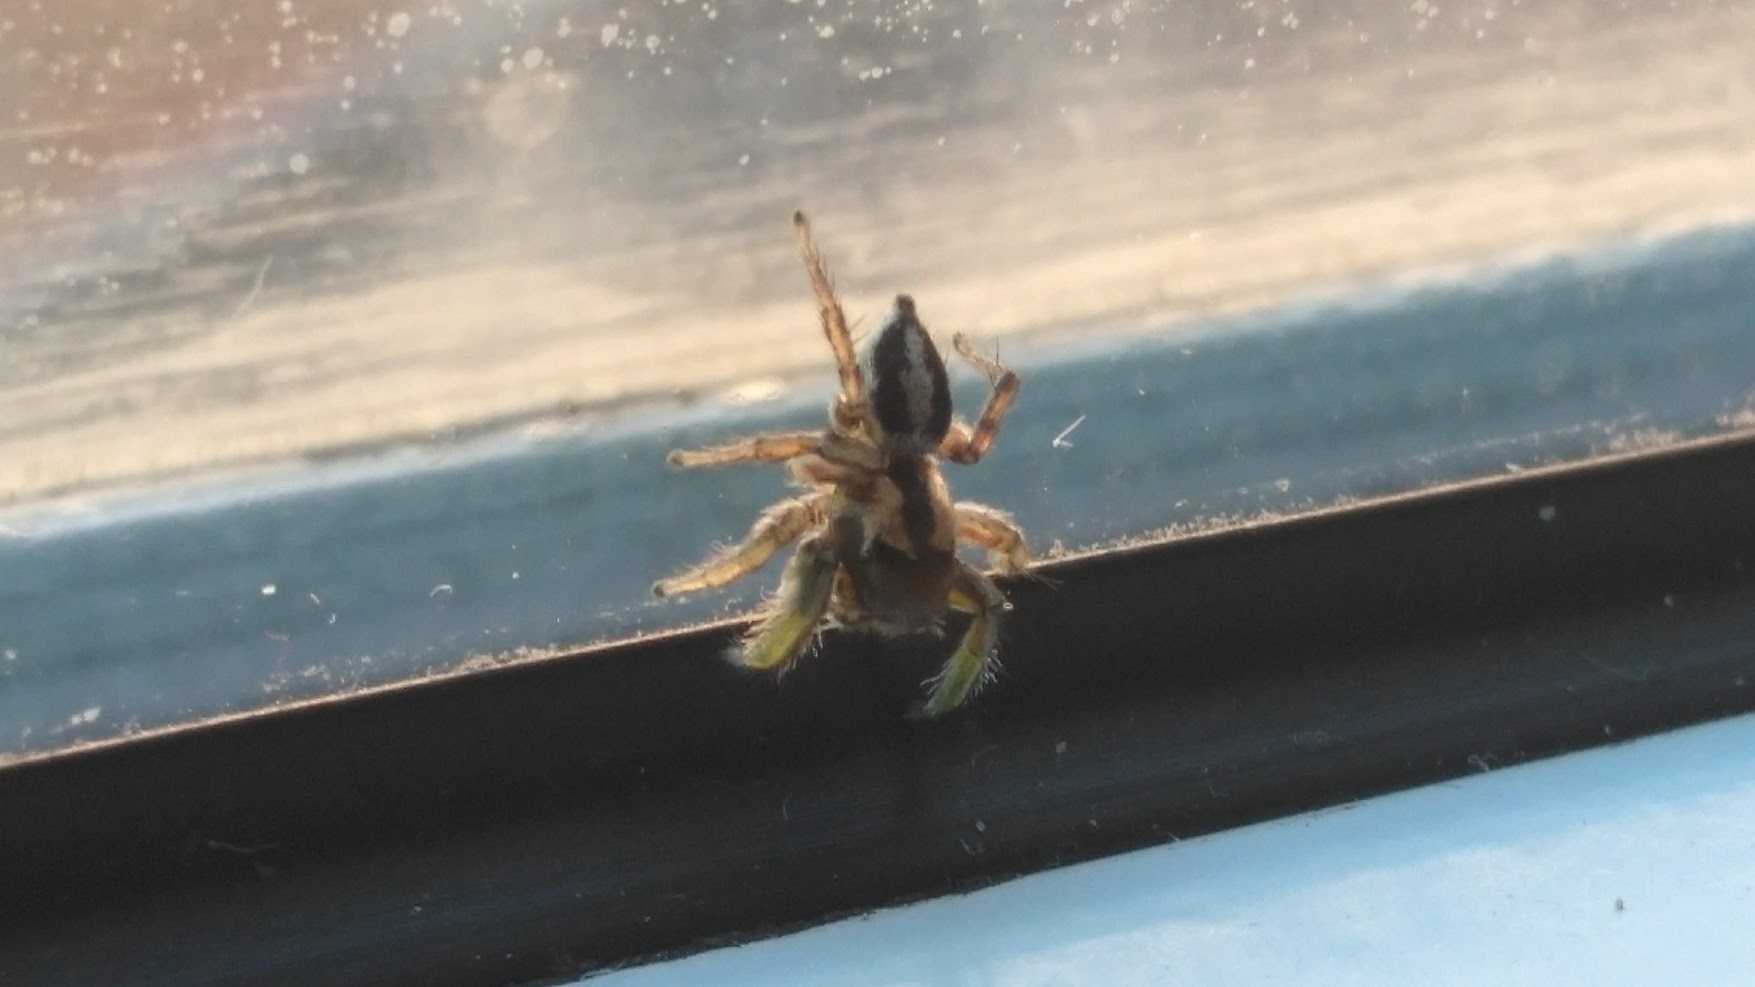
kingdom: Animalia
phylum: Arthropoda
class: Arachnida
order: Araneae
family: Salticidae
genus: Habronattus
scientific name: Habronattus viridipes
